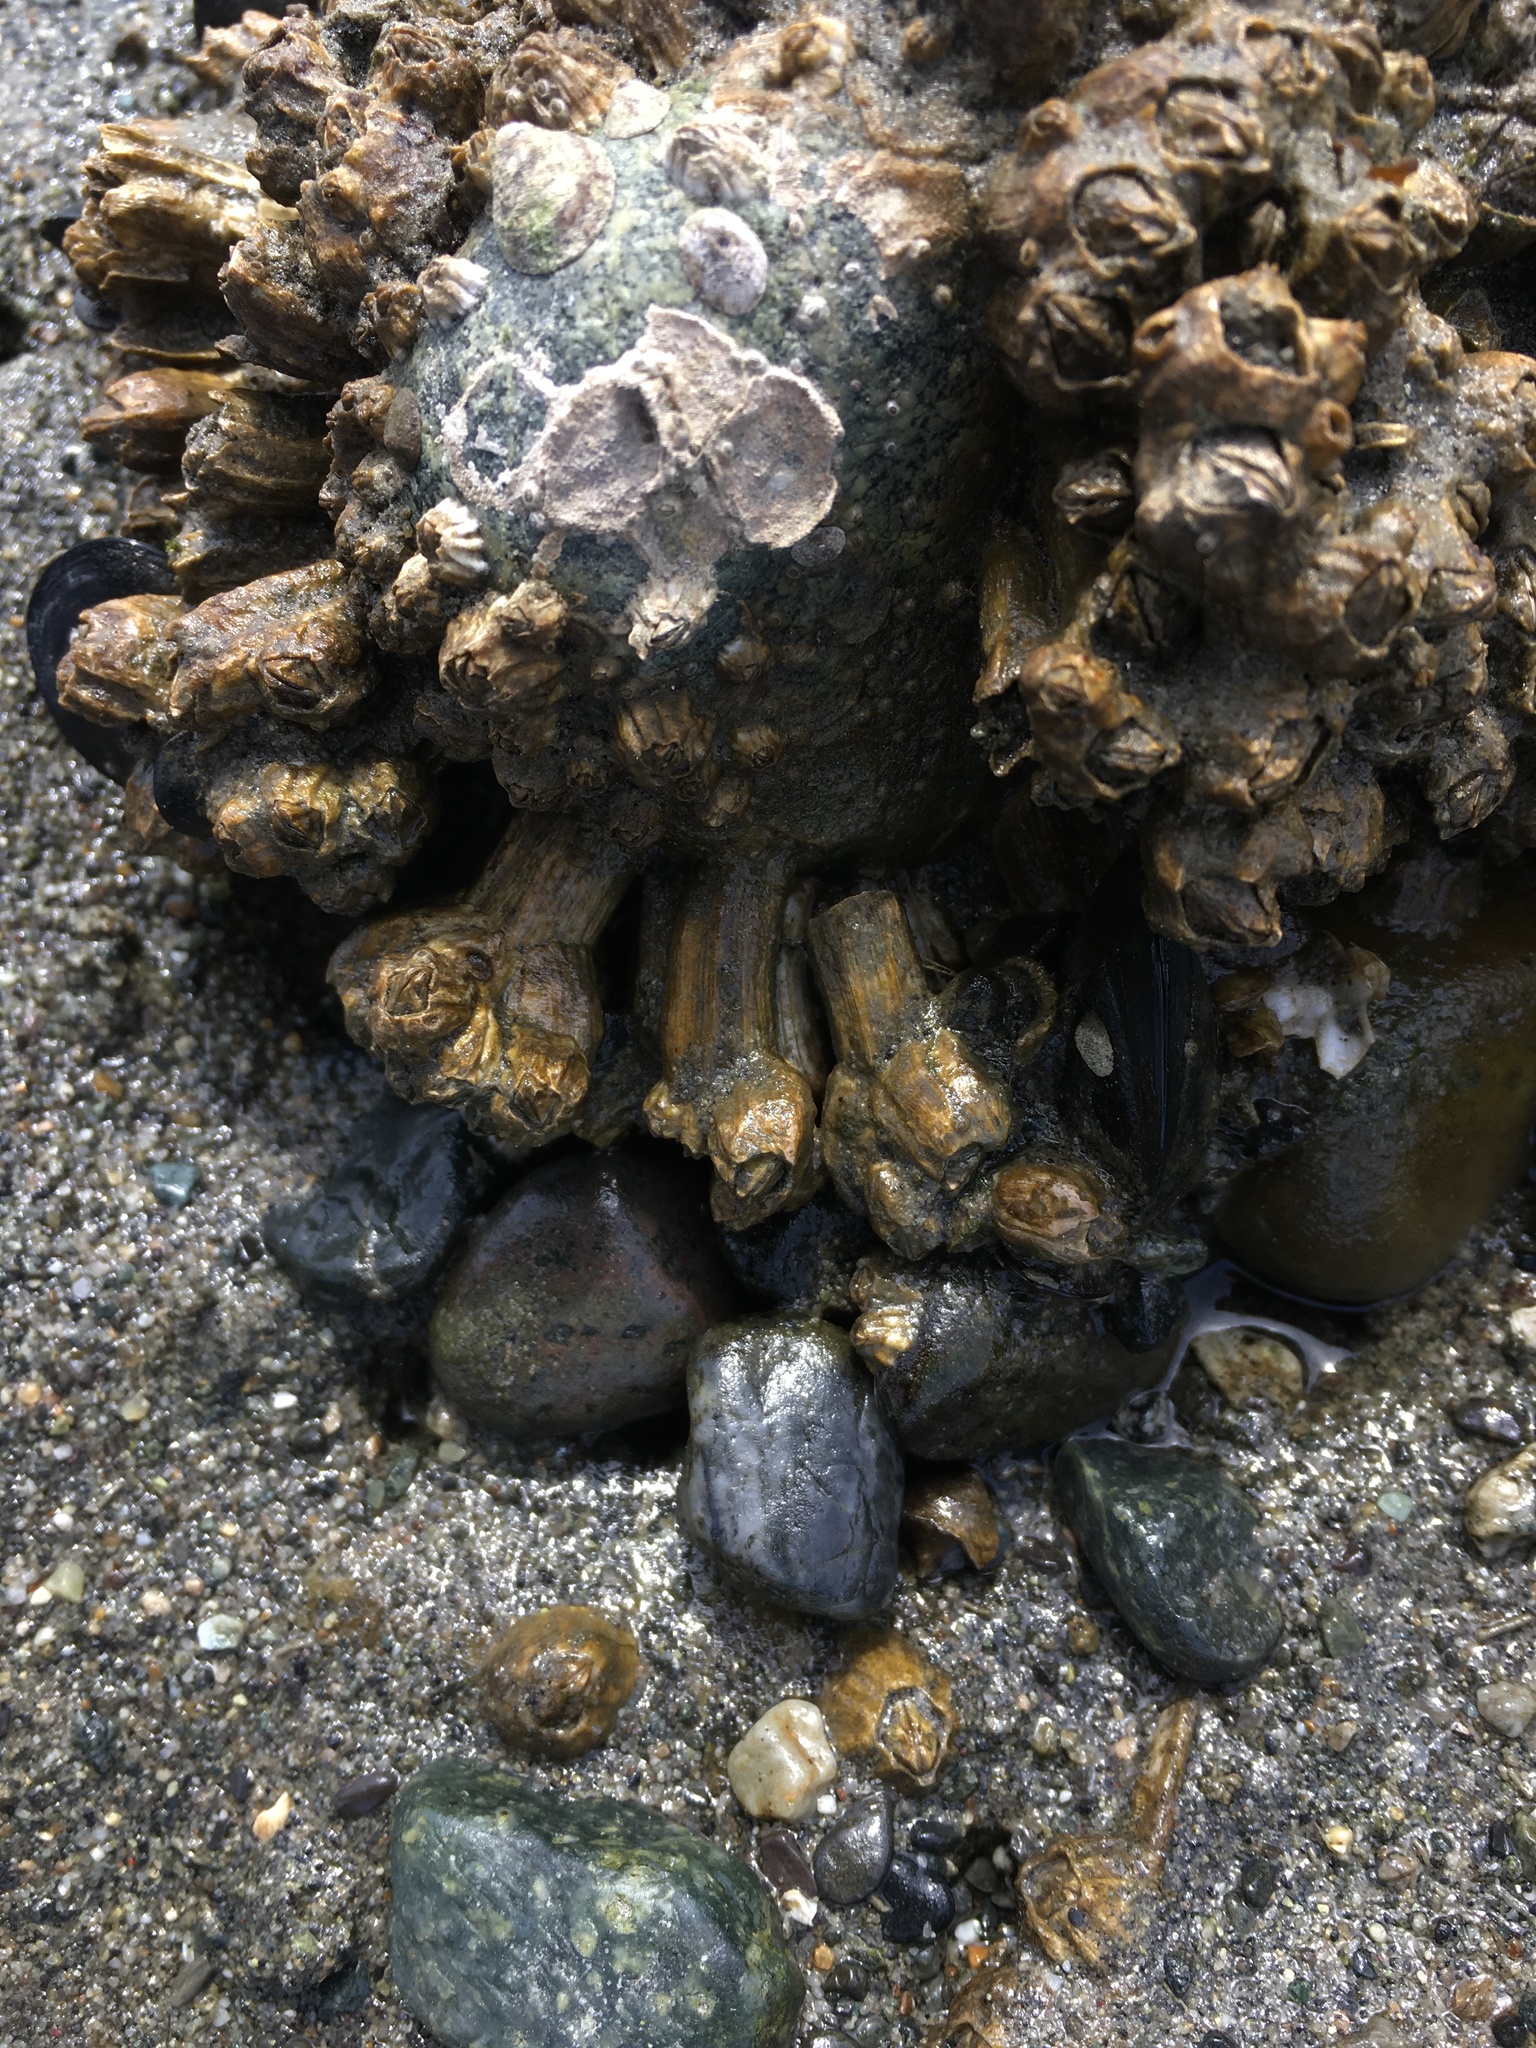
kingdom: Animalia
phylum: Arthropoda
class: Maxillopoda
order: Sessilia
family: Balanidae
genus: Balanus
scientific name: Balanus glandula
